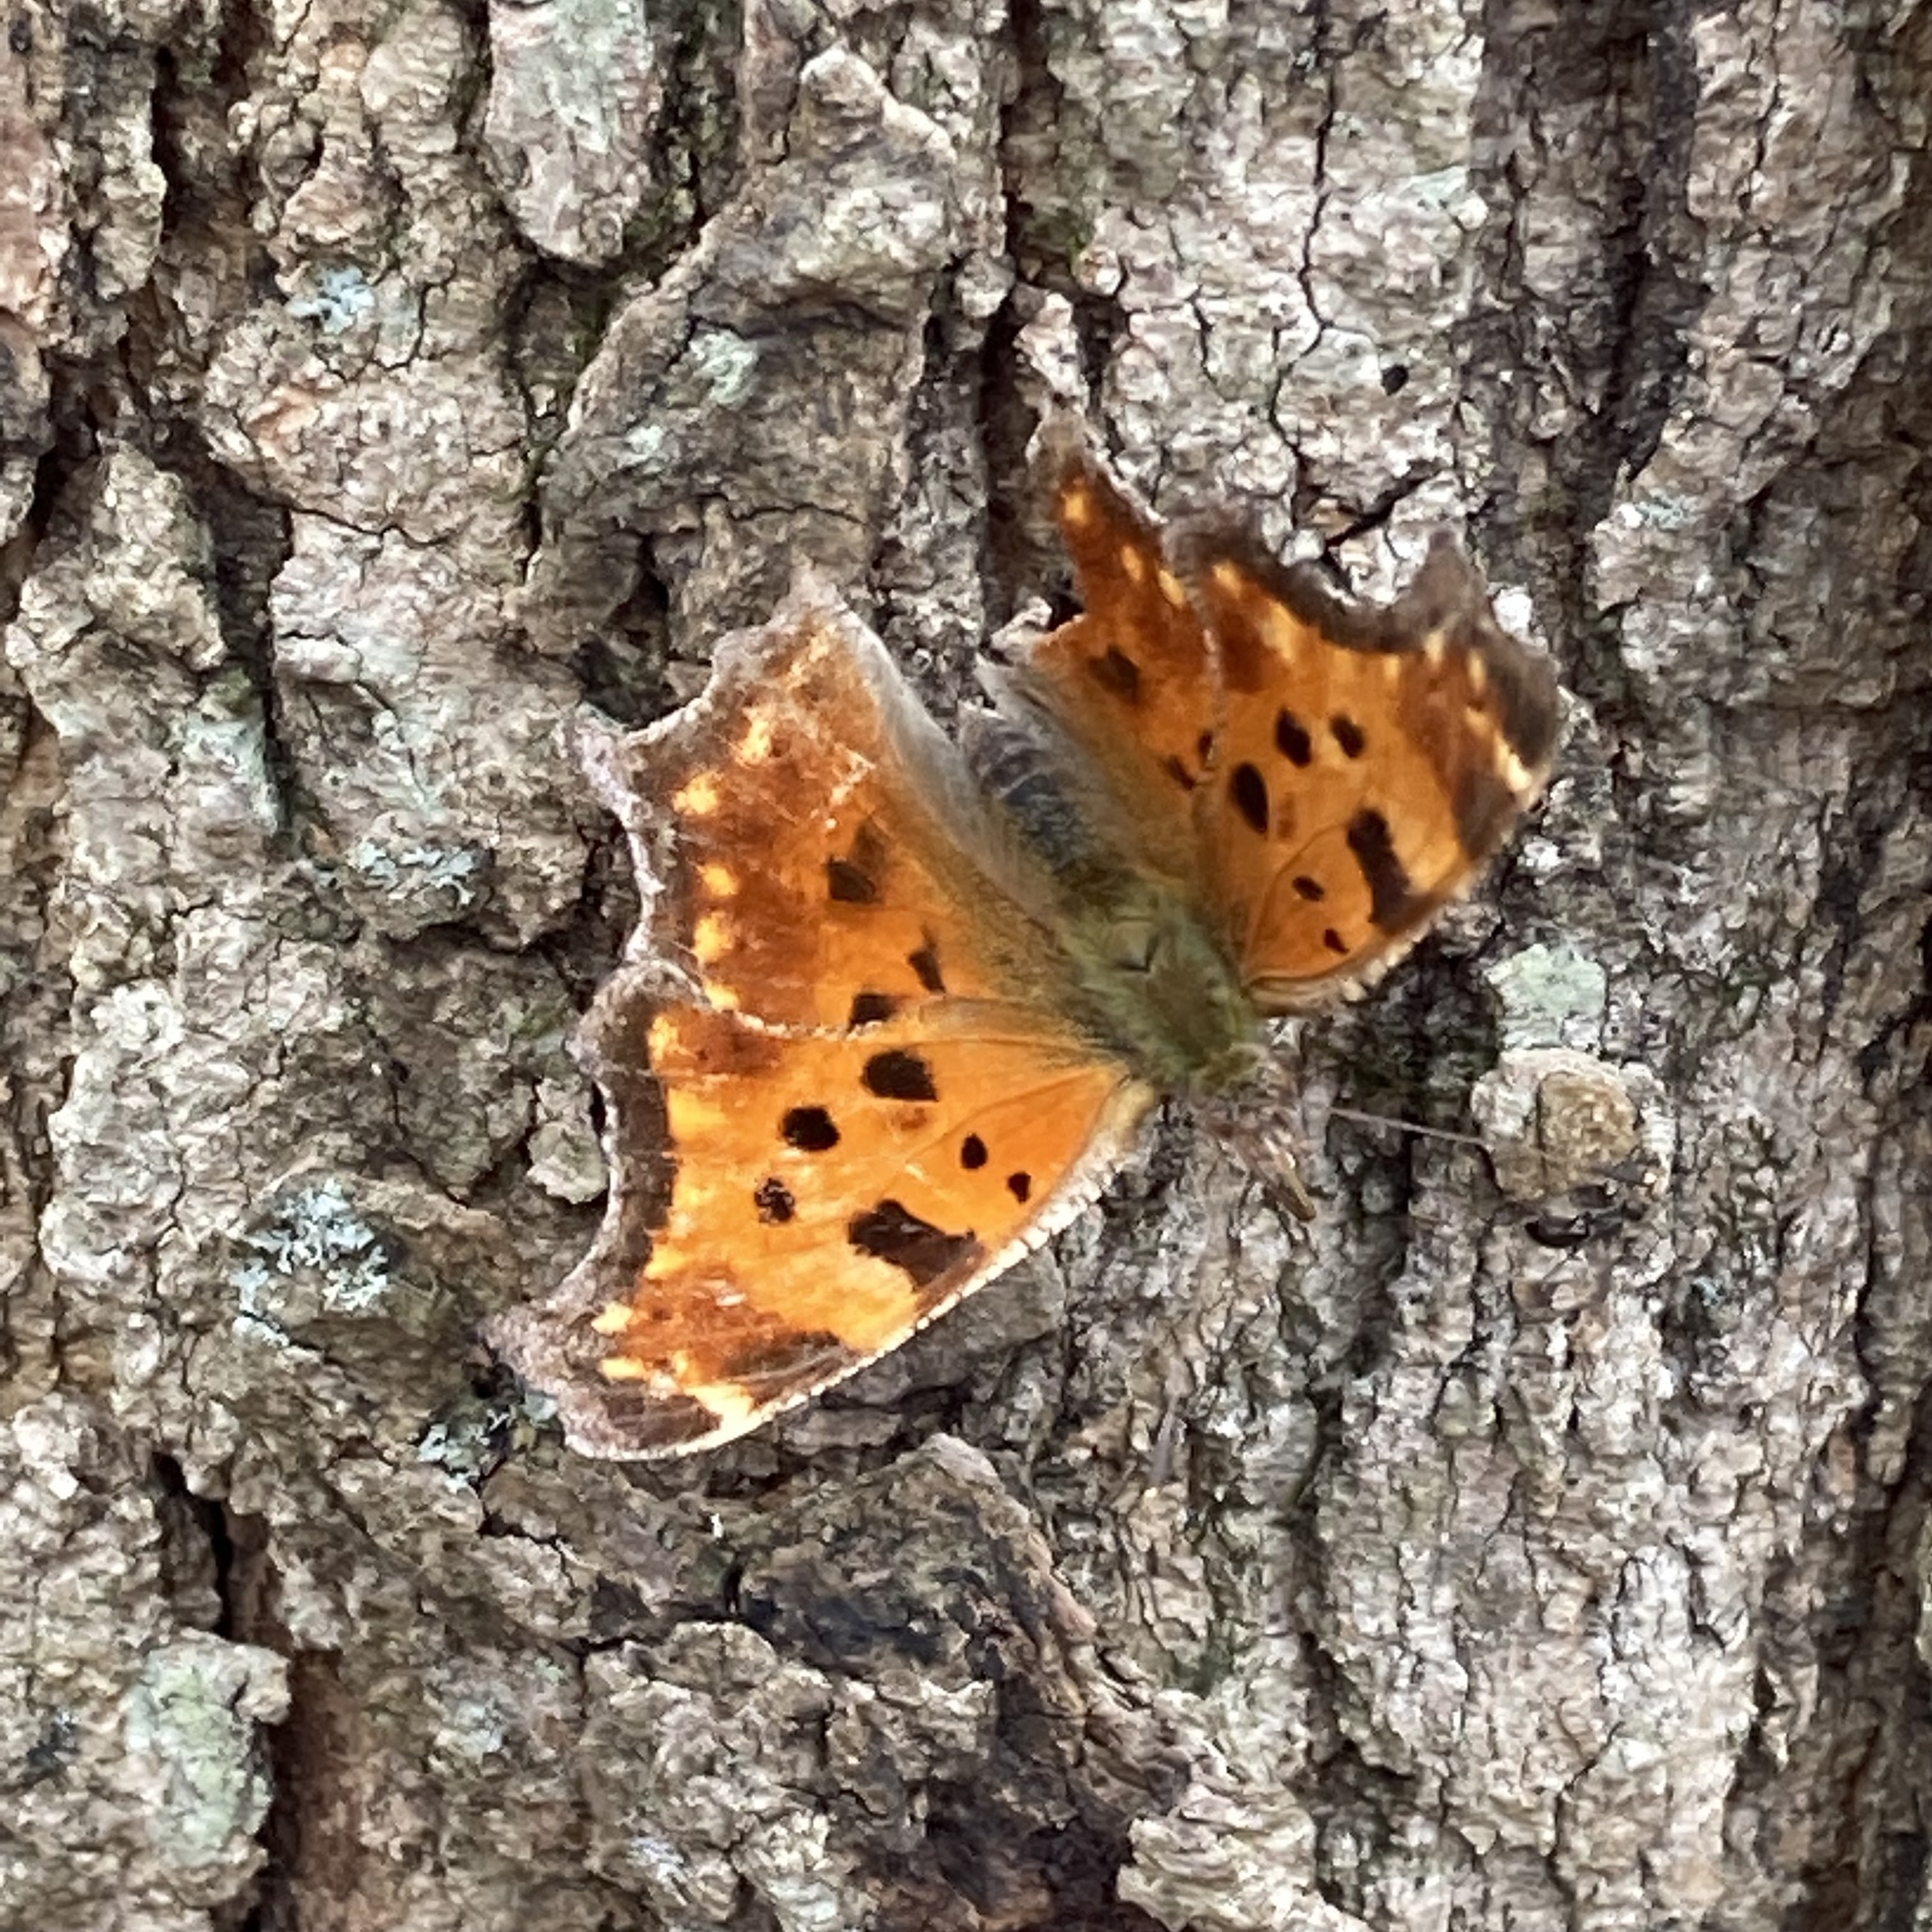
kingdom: Animalia
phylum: Arthropoda
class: Insecta
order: Lepidoptera
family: Nymphalidae
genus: Polygonia
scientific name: Polygonia comma
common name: Eastern comma
